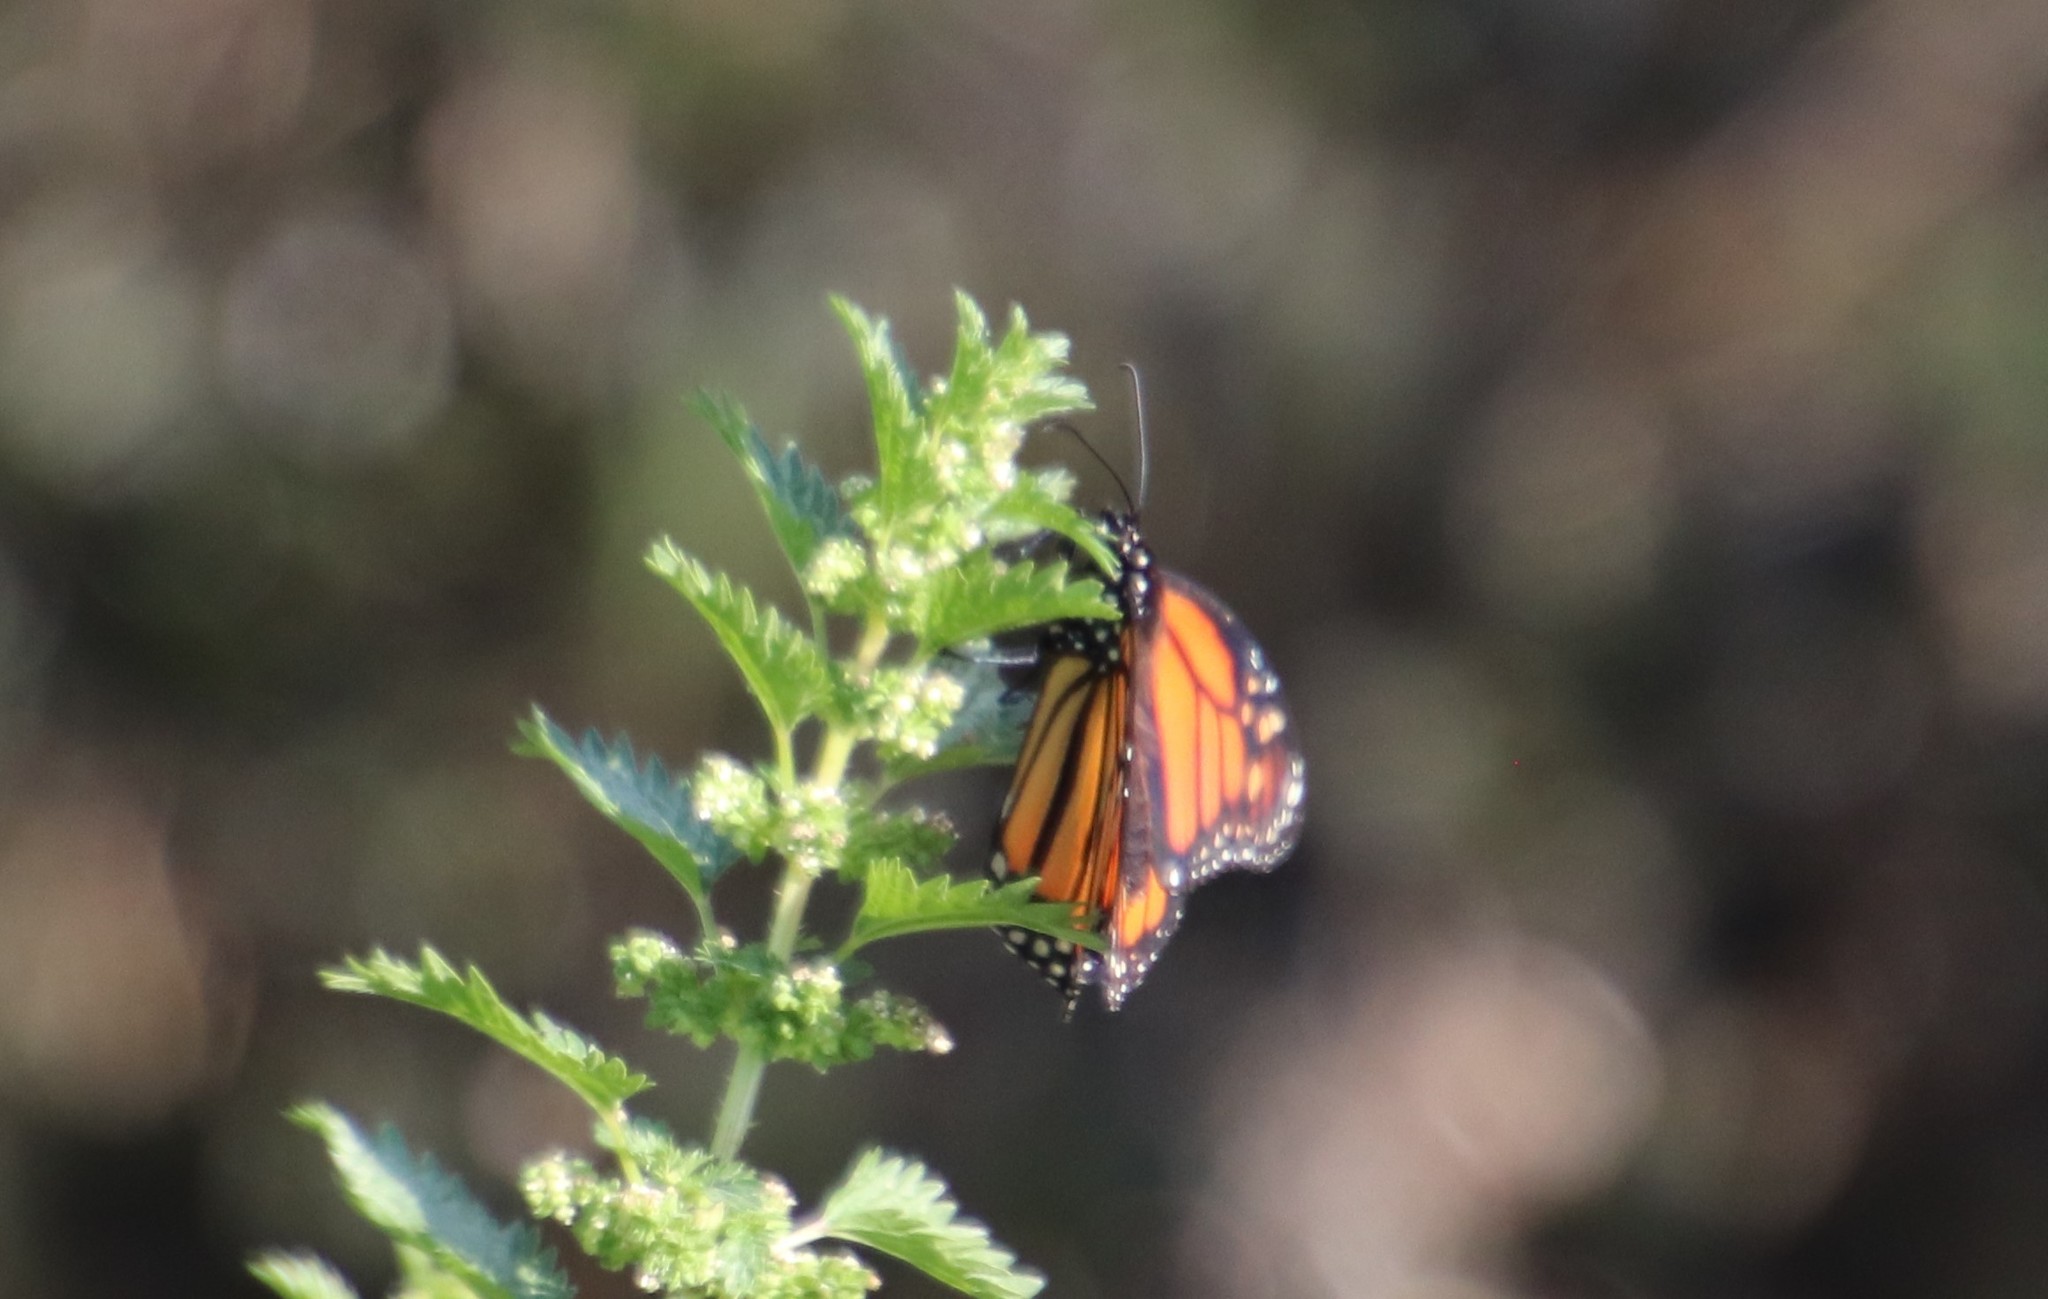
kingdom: Animalia
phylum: Arthropoda
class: Insecta
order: Lepidoptera
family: Nymphalidae
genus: Danaus
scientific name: Danaus plexippus
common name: Monarch
